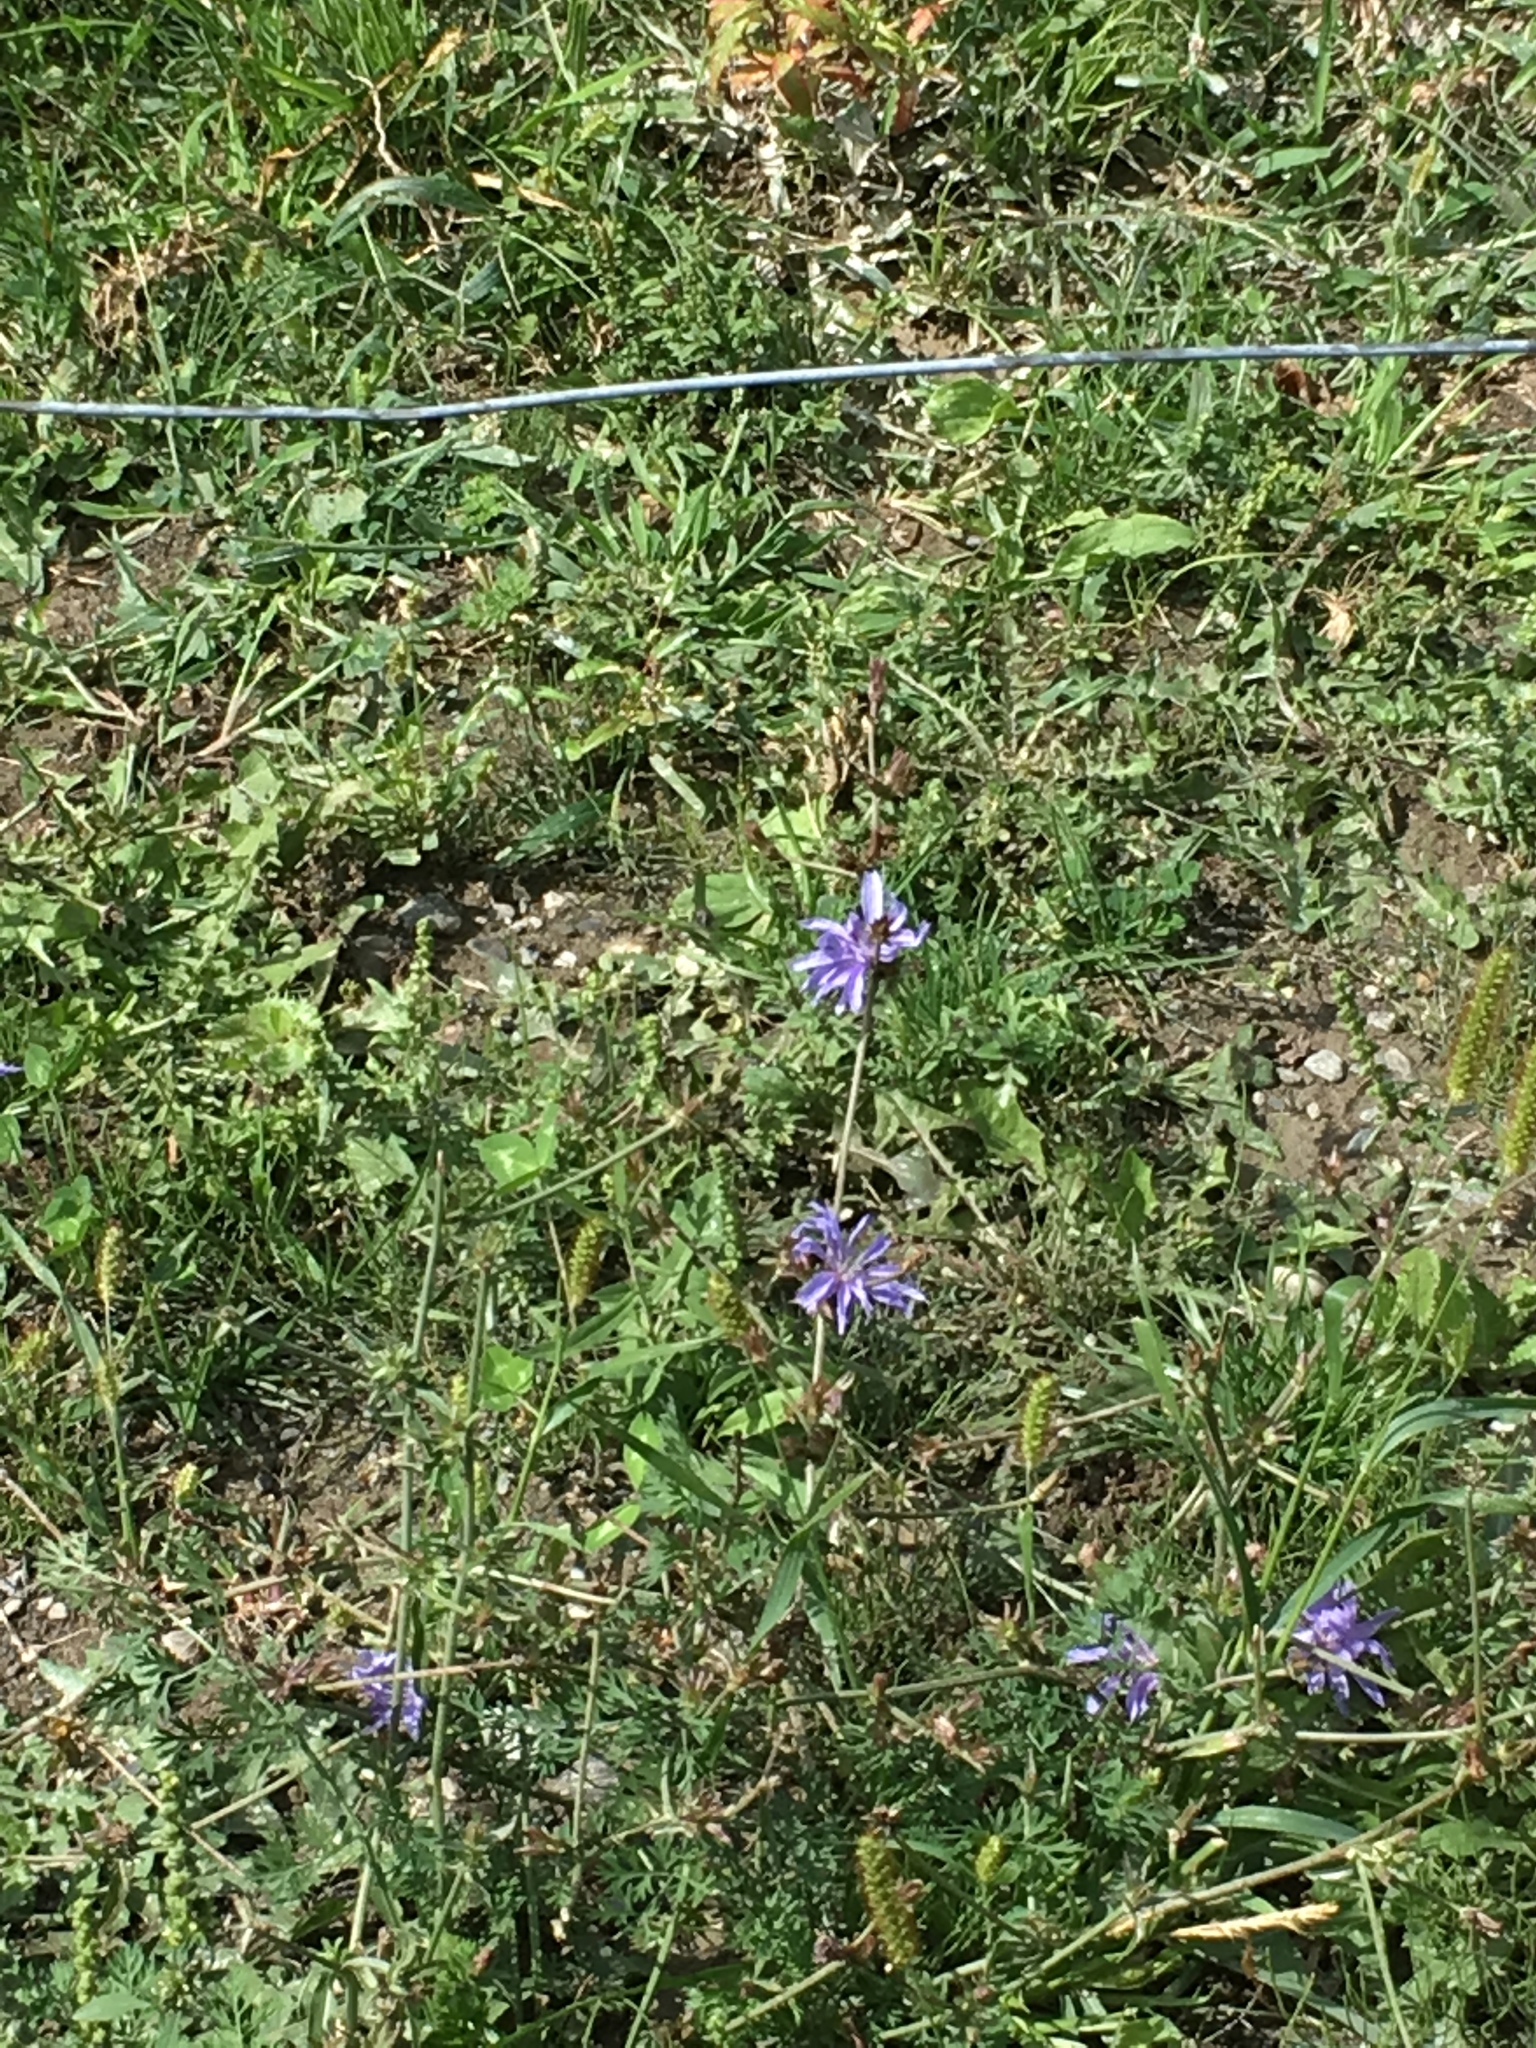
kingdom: Plantae
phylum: Tracheophyta
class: Magnoliopsida
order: Asterales
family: Asteraceae
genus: Cichorium
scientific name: Cichorium intybus
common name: Chicory
